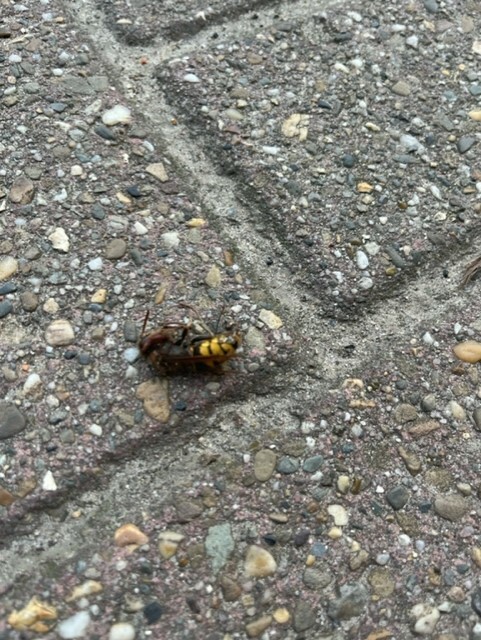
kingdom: Animalia
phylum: Arthropoda
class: Insecta
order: Hymenoptera
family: Vespidae
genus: Vespa
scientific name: Vespa crabro
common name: Hornet
